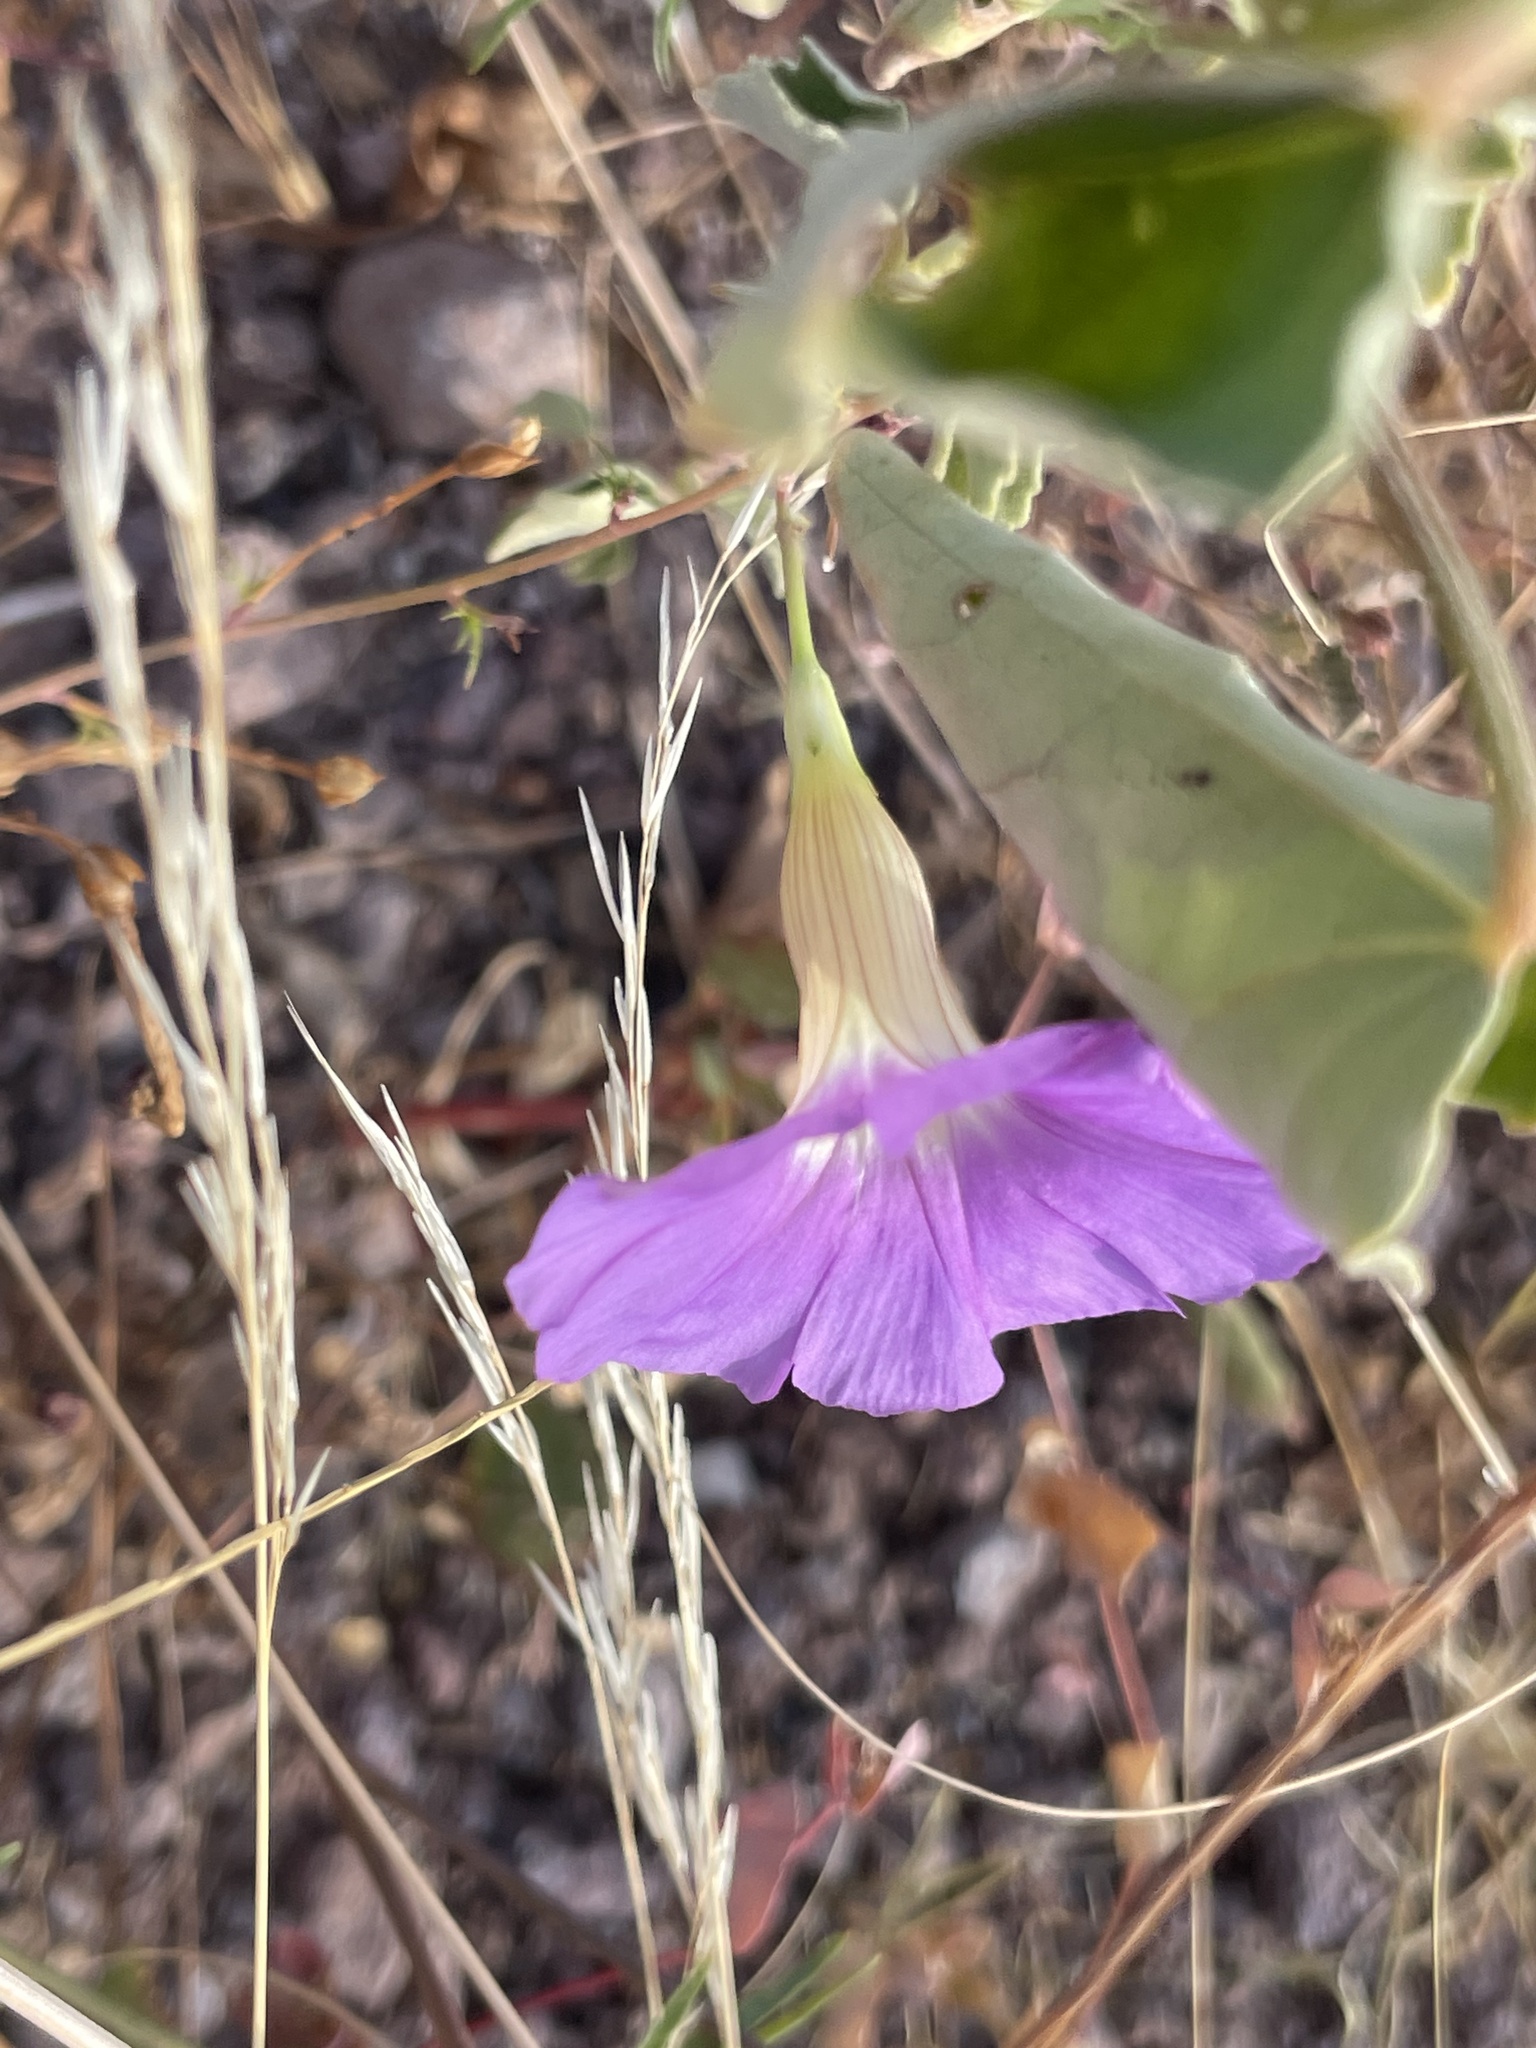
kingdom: Plantae
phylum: Tracheophyta
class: Magnoliopsida
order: Solanales
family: Convolvulaceae
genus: Ipomoea
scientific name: Ipomoea ternifolia
